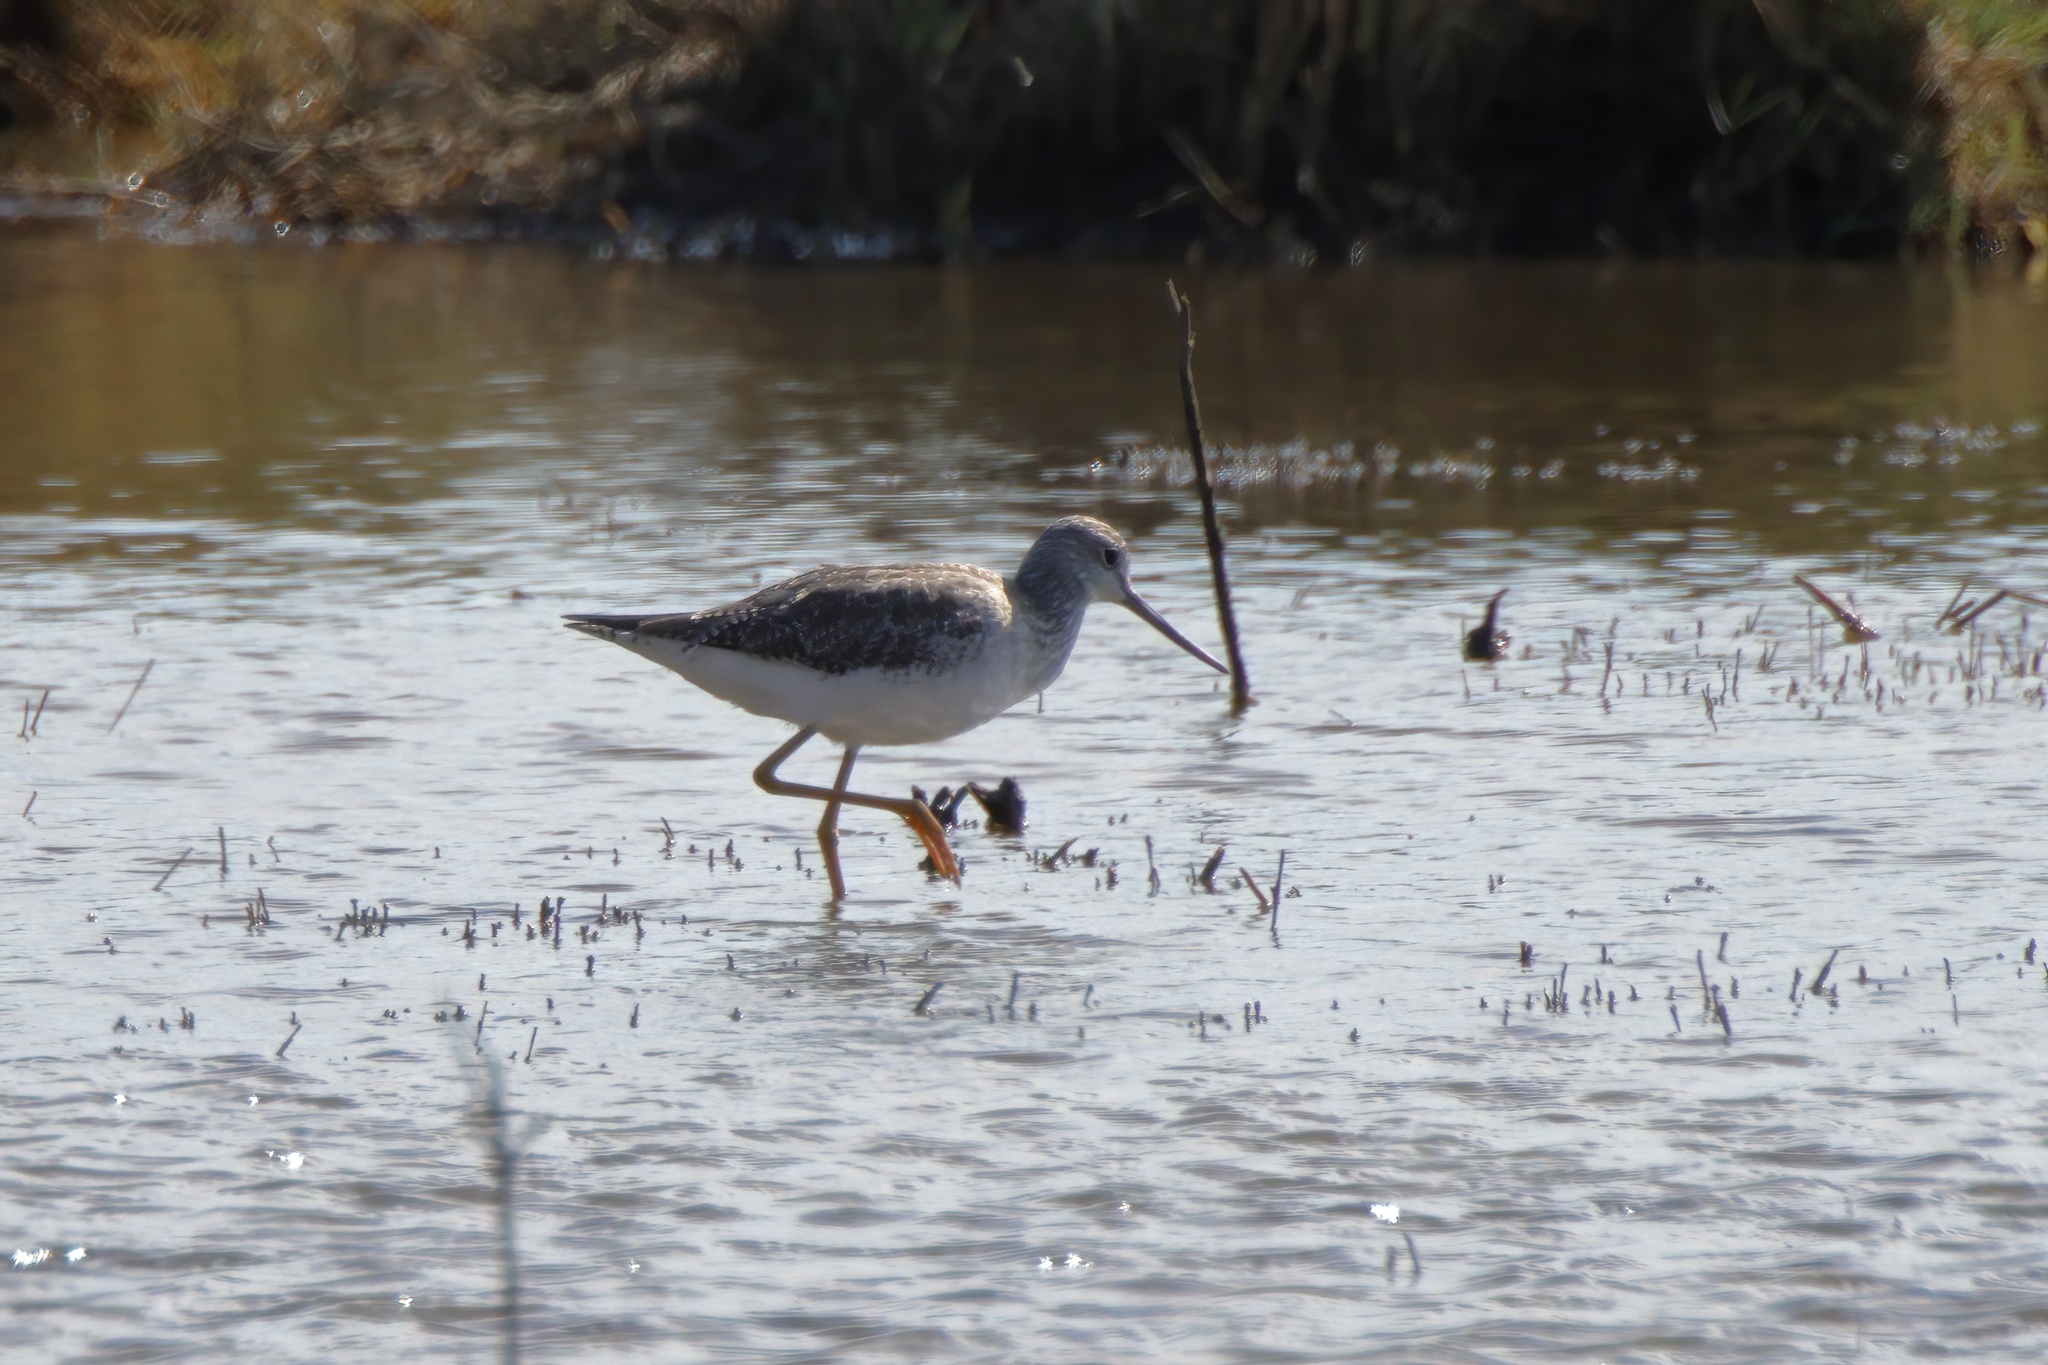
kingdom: Animalia
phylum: Chordata
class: Aves
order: Charadriiformes
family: Scolopacidae
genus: Tringa
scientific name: Tringa melanoleuca
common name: Greater yellowlegs
